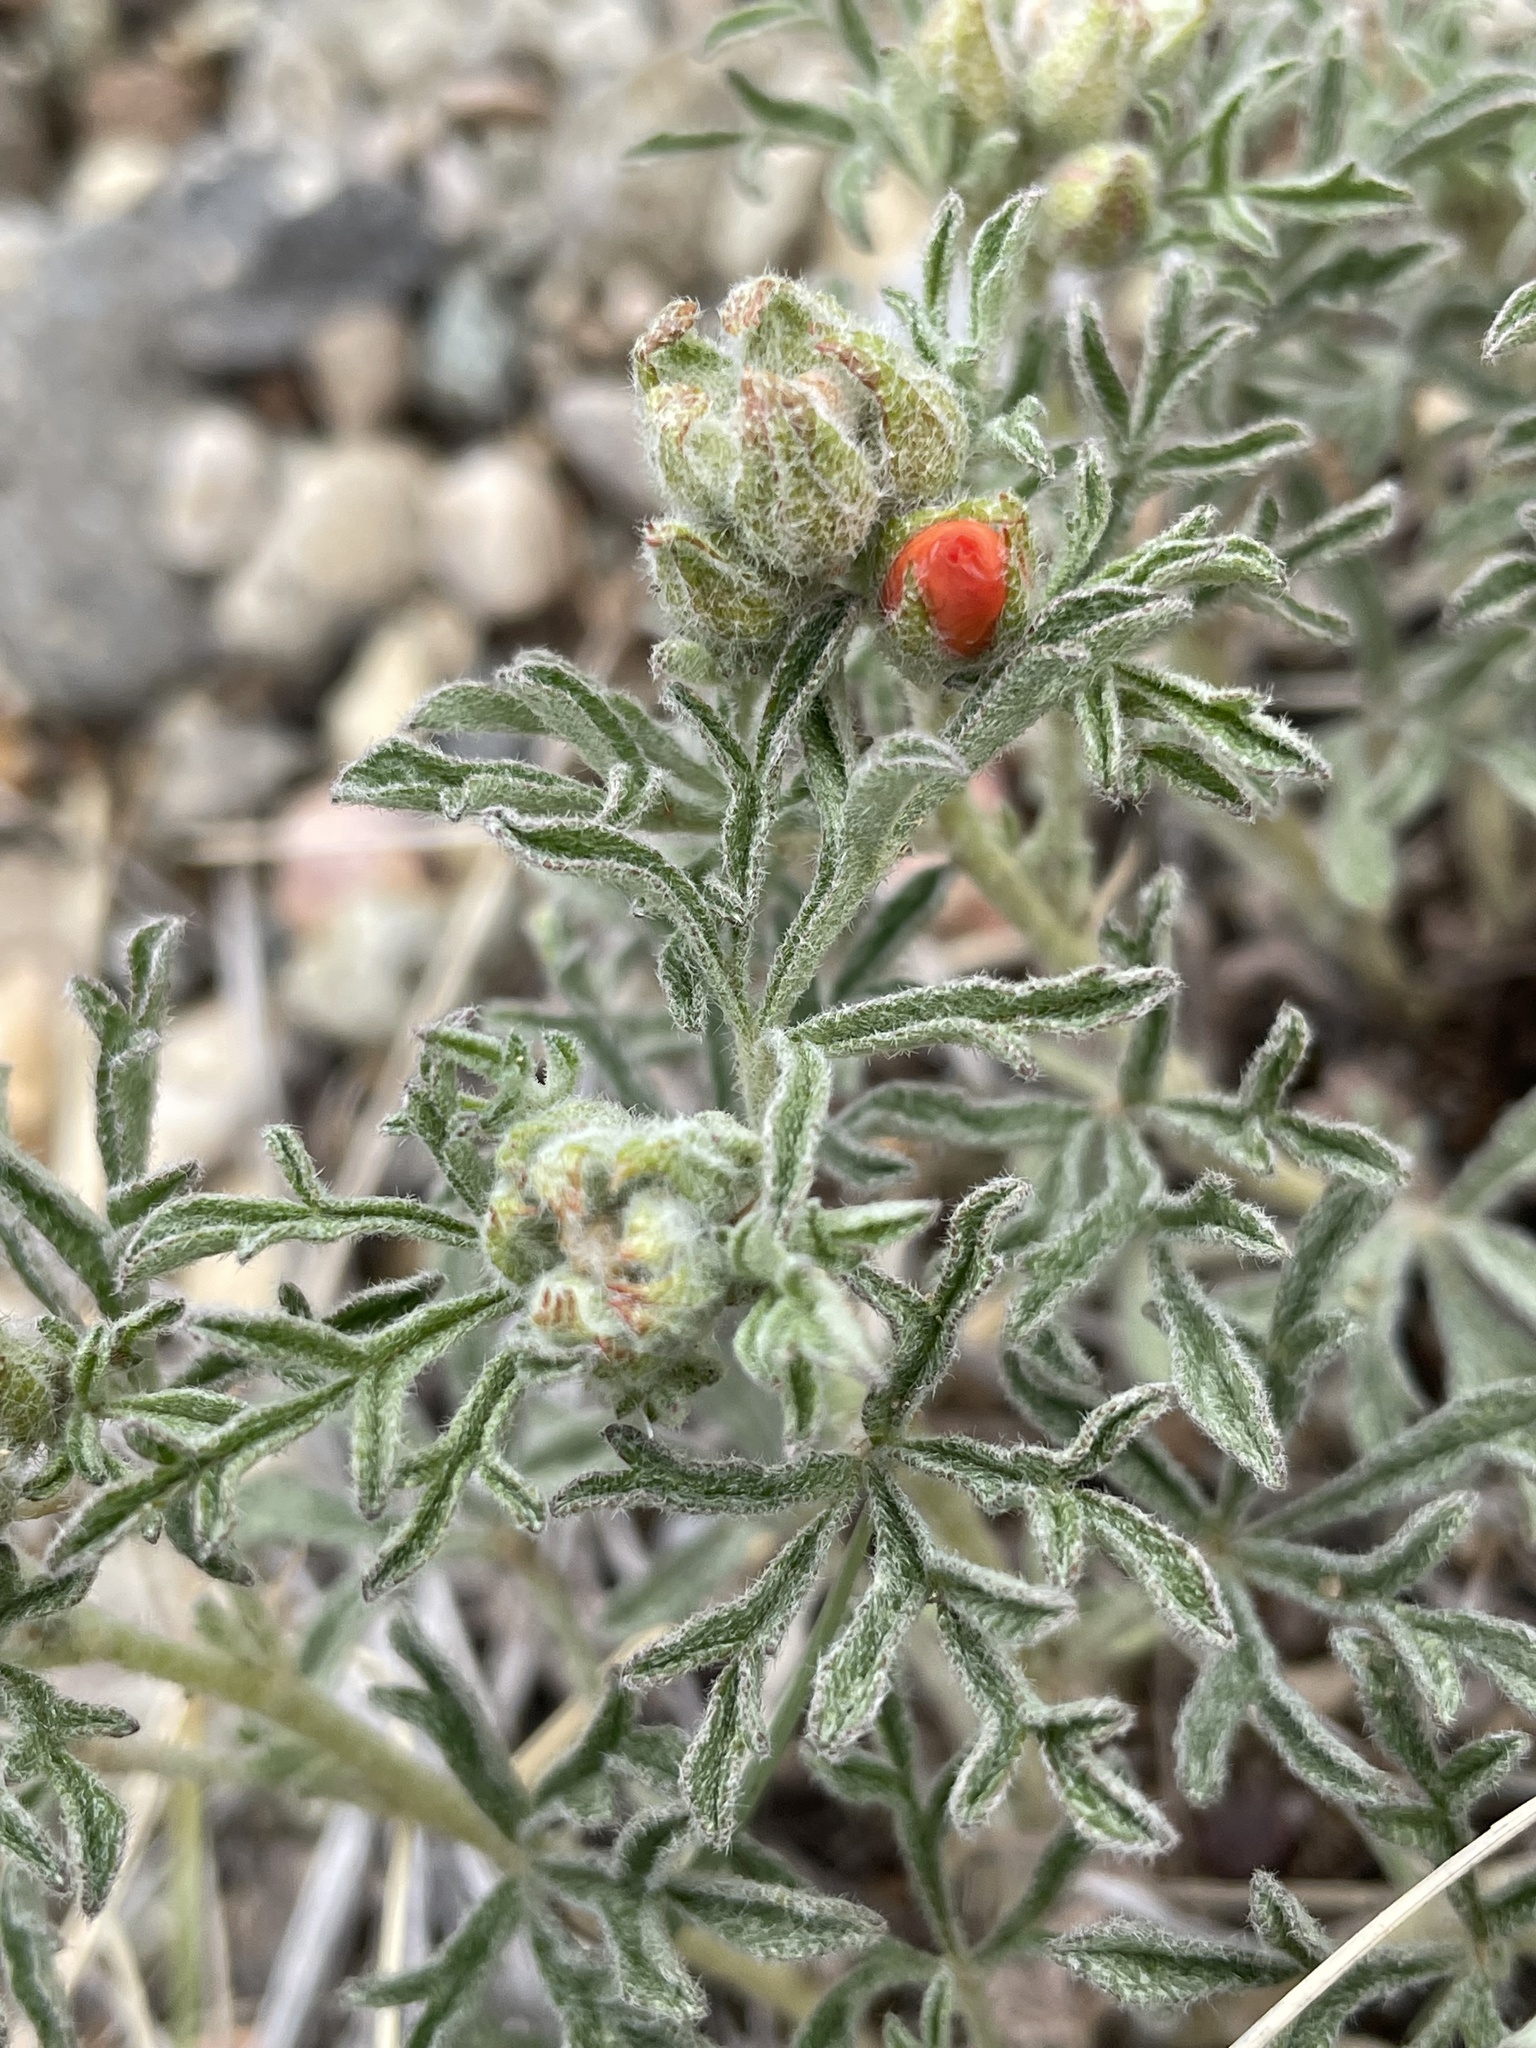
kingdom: Plantae
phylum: Tracheophyta
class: Magnoliopsida
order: Malvales
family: Malvaceae
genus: Sphaeralcea
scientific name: Sphaeralcea coccinea
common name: Moss-rose
